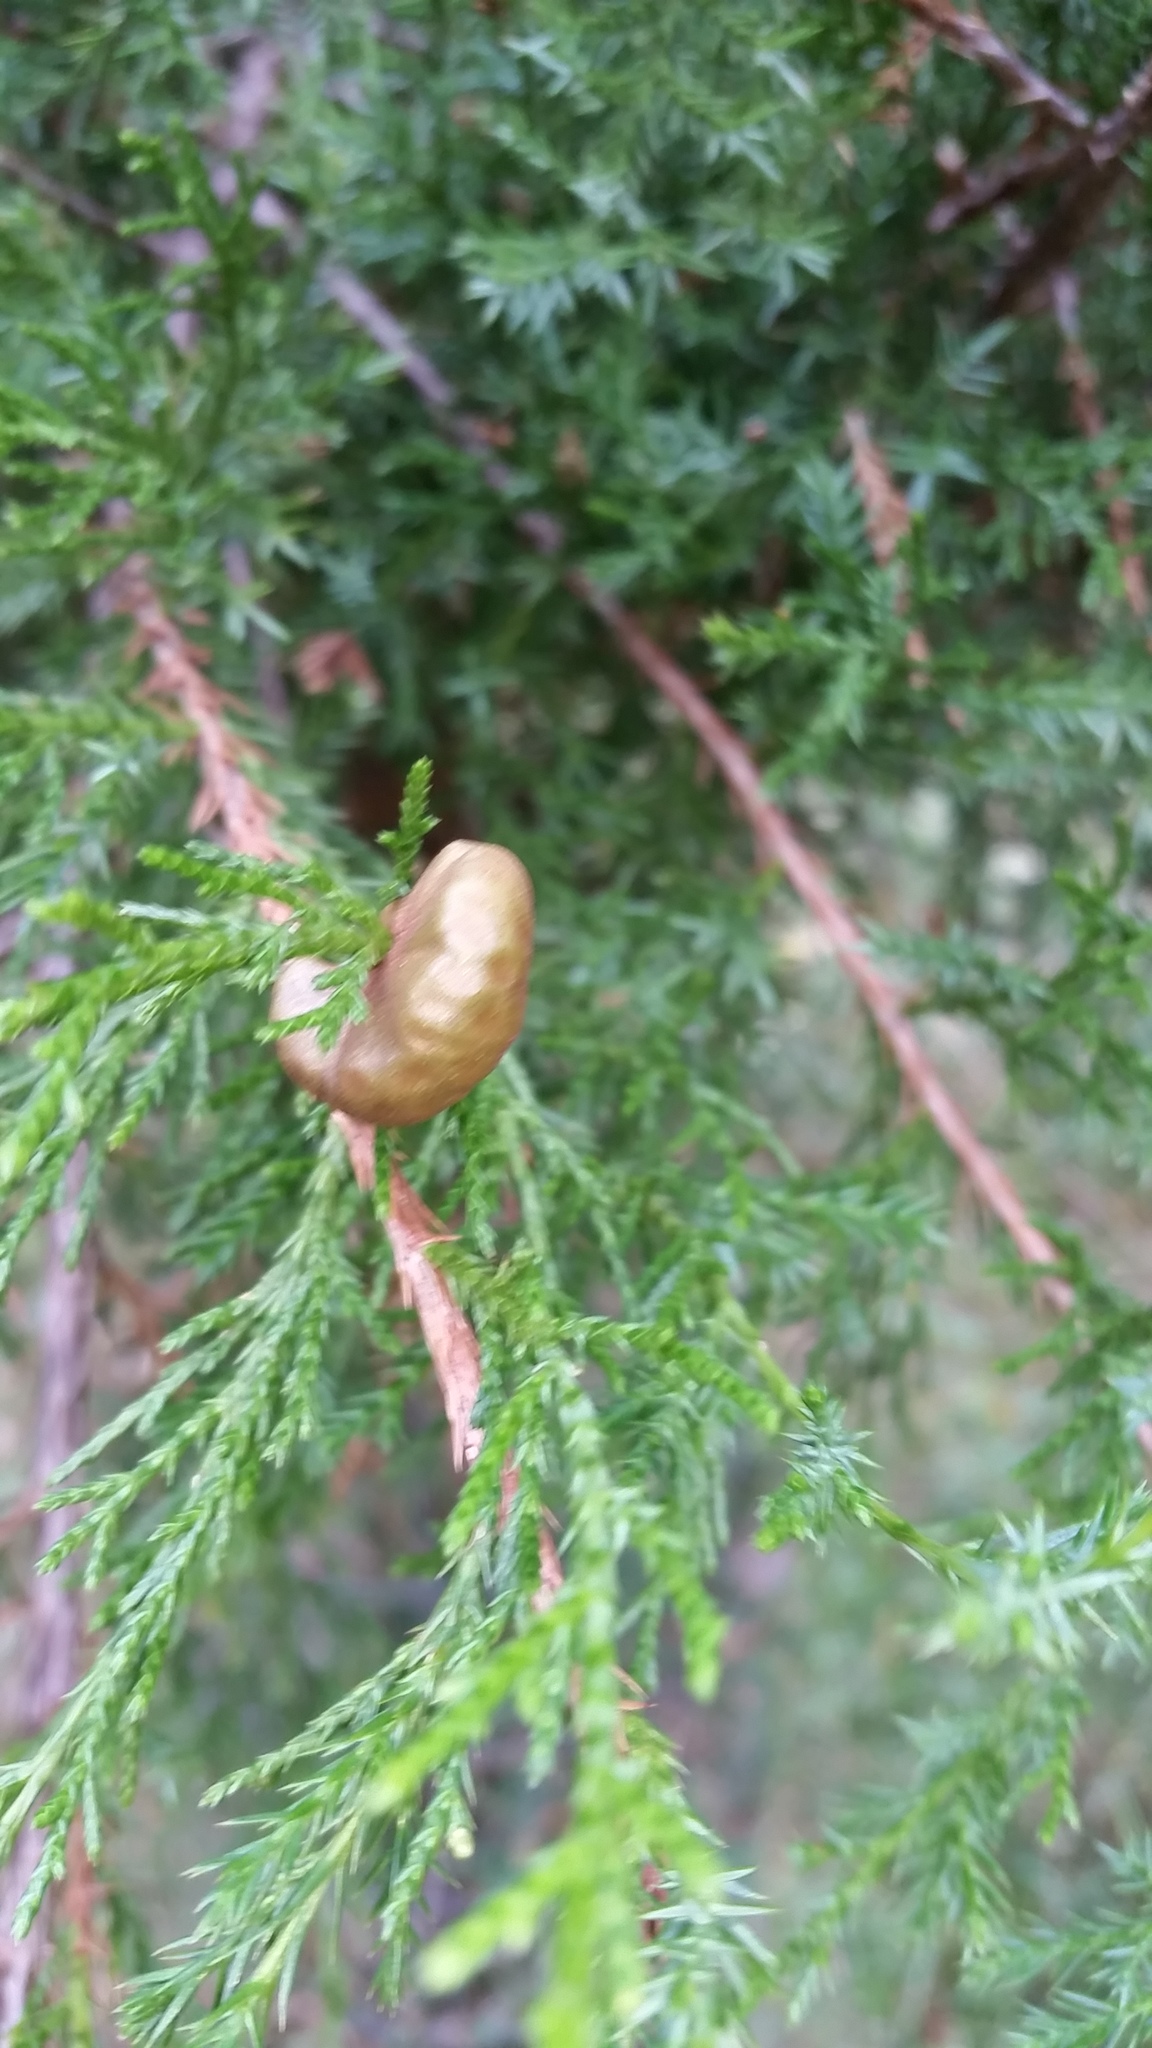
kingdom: Fungi
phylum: Basidiomycota
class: Pucciniomycetes
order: Pucciniales
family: Gymnosporangiaceae
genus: Gymnosporangium
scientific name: Gymnosporangium juniperi-virginianae
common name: Juniper-apple rust
